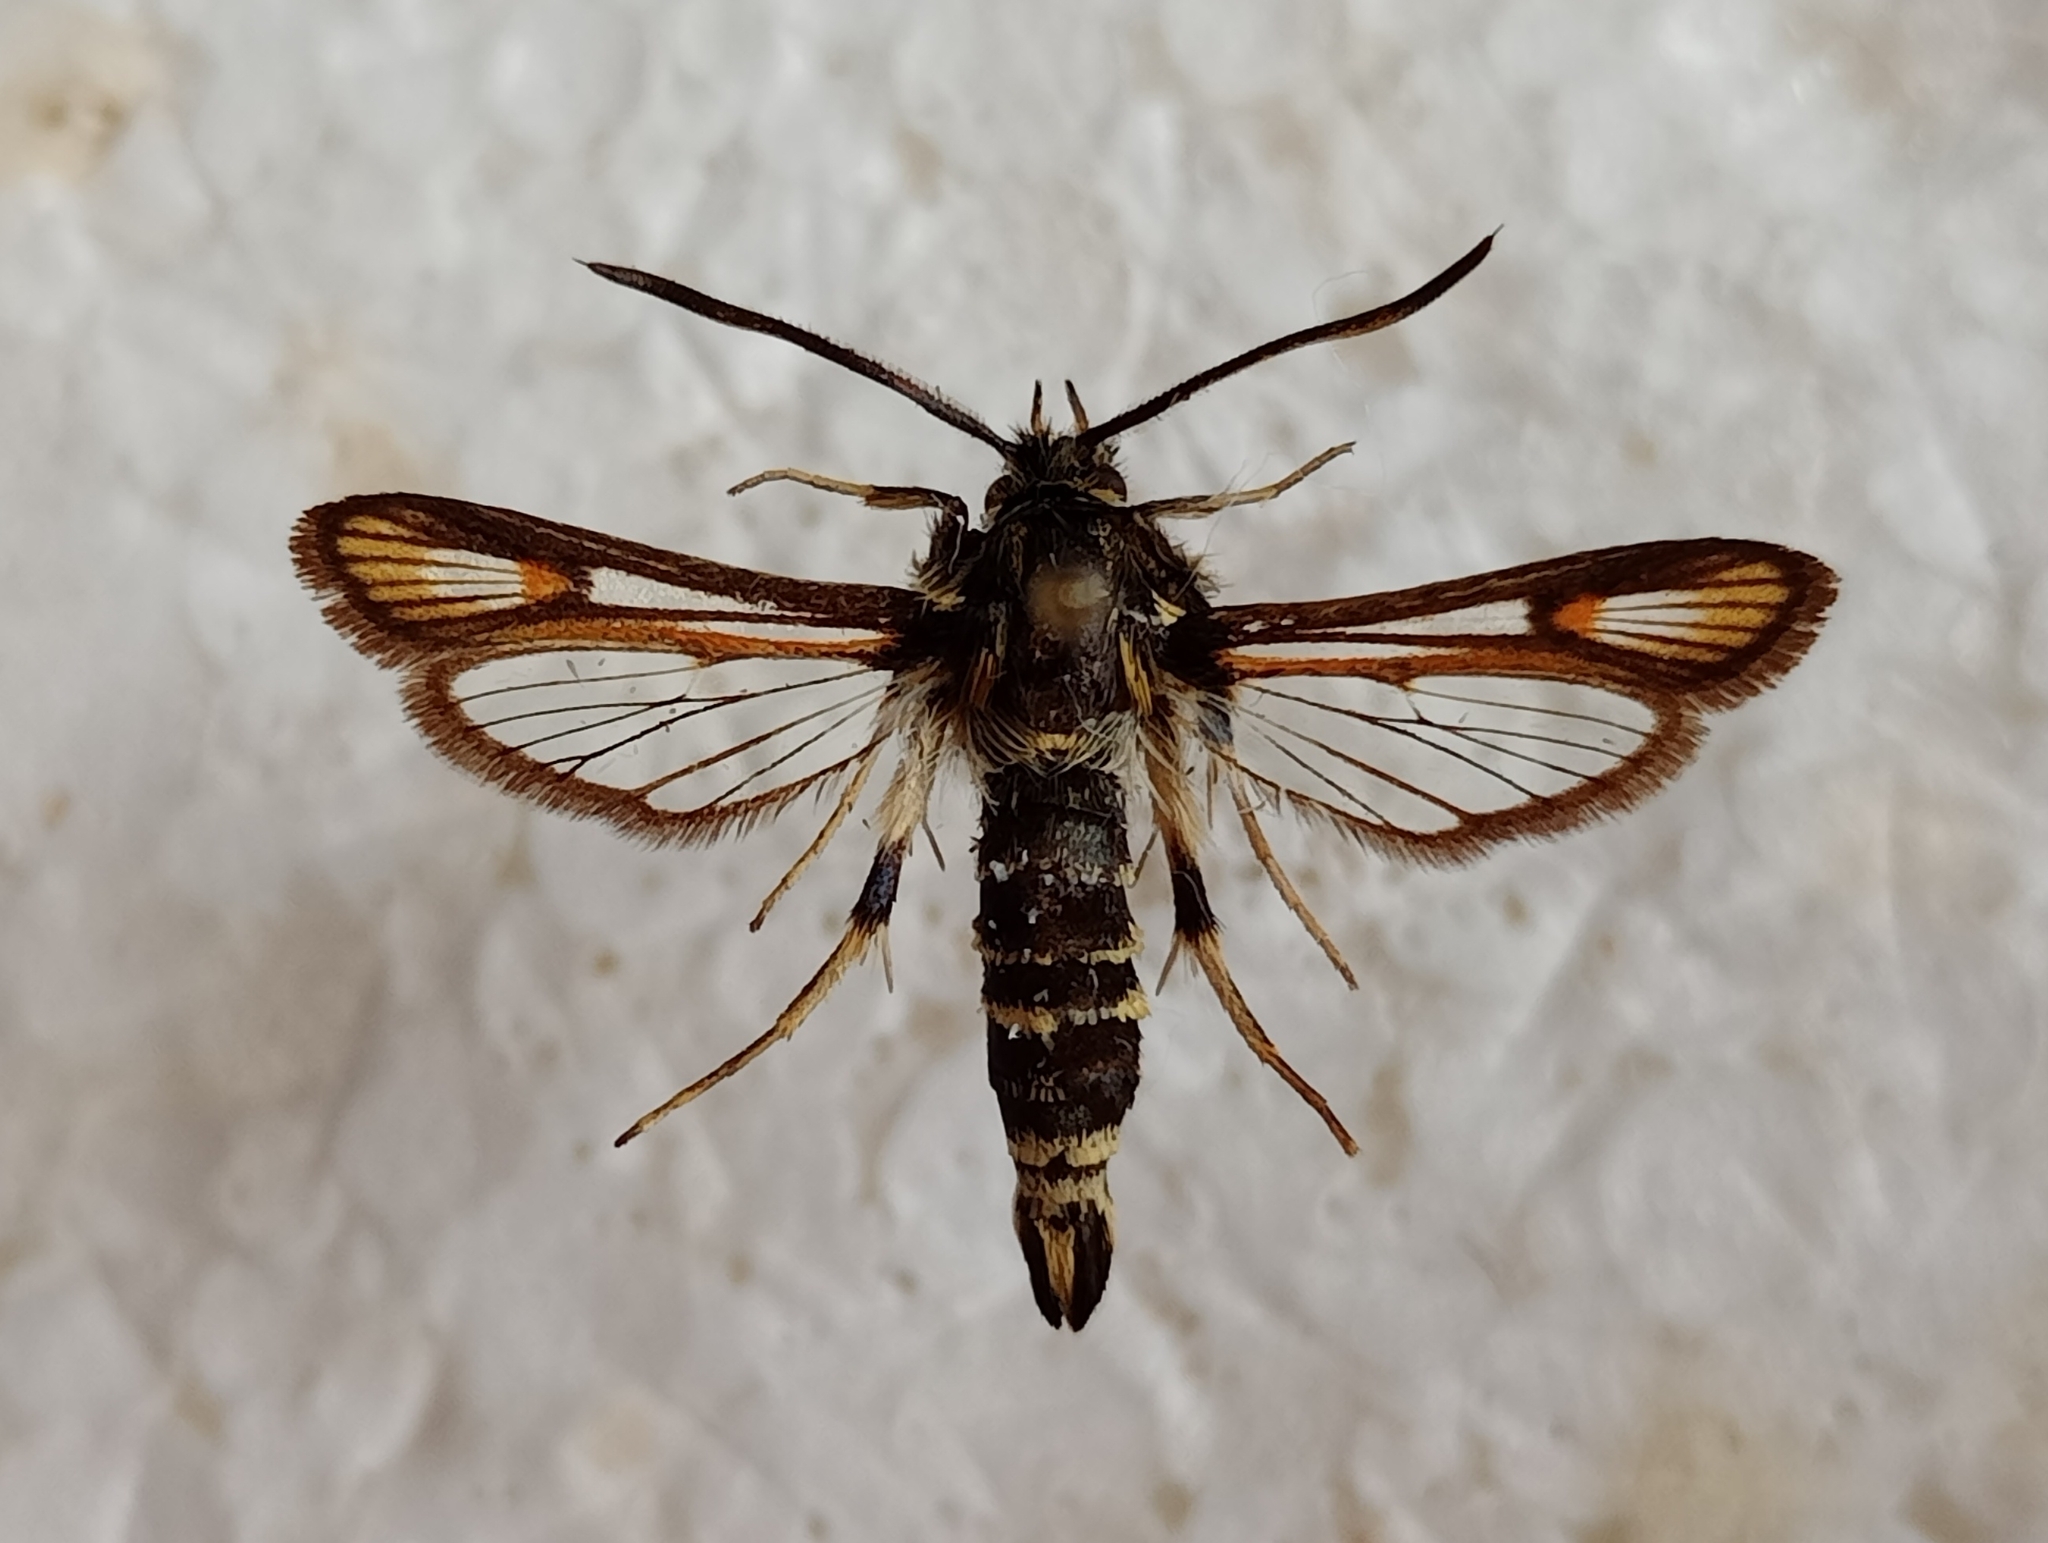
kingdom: Animalia
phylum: Arthropoda
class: Insecta
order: Lepidoptera
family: Sesiidae
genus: Bembecia
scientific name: Bembecia albanensis
